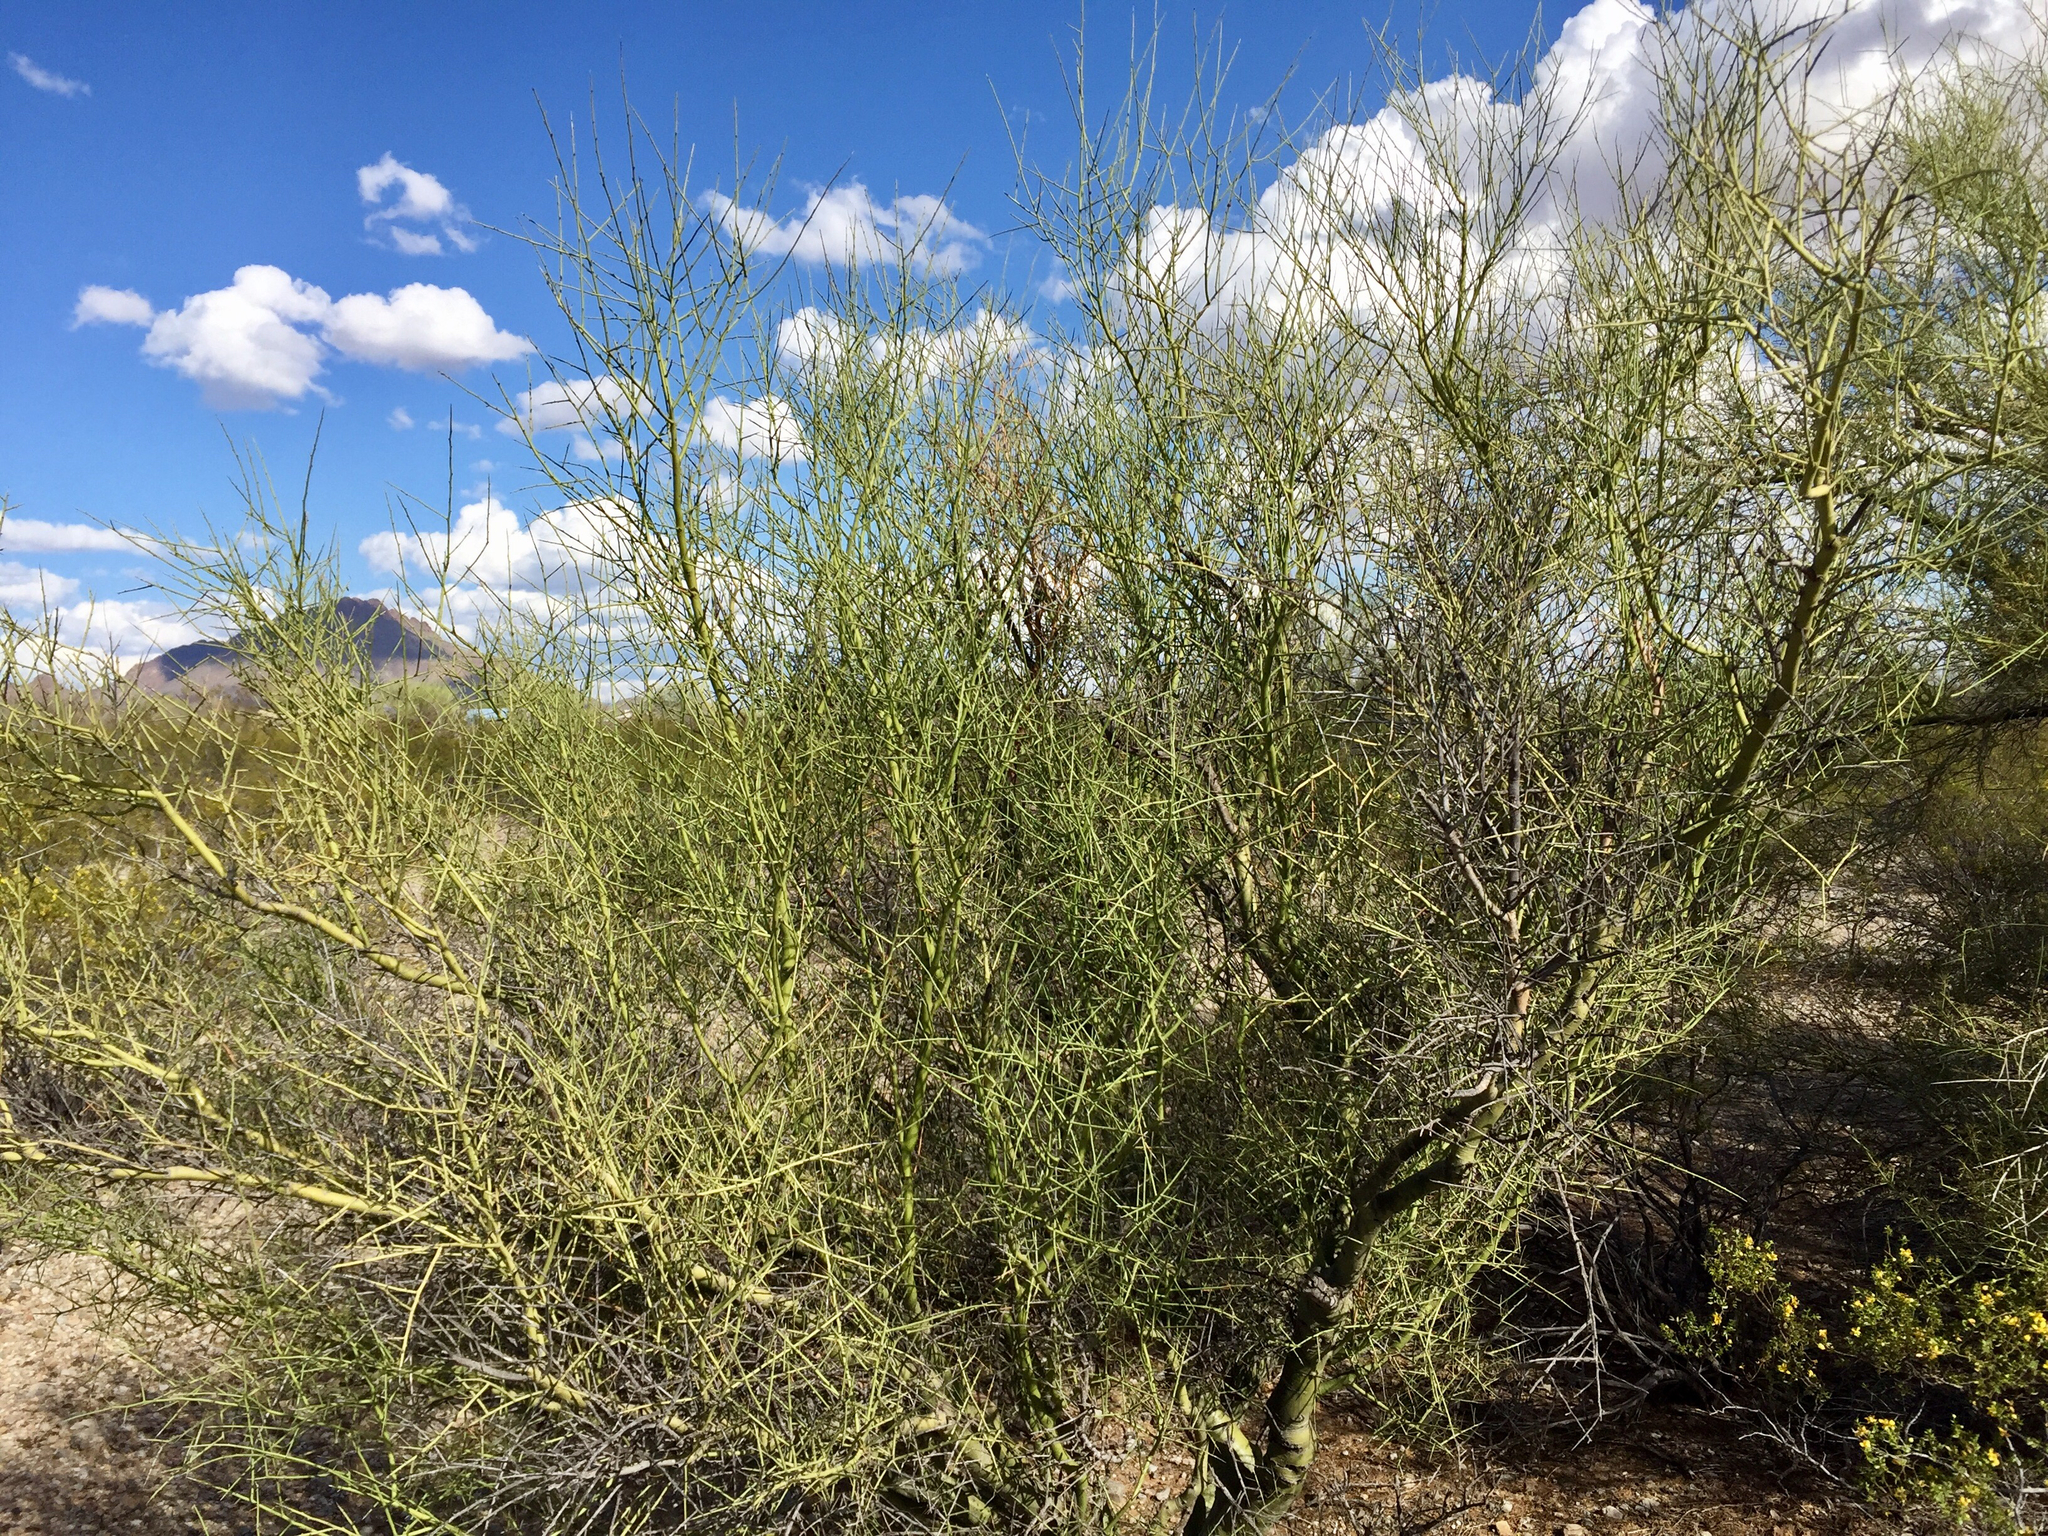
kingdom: Plantae
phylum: Tracheophyta
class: Magnoliopsida
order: Fabales
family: Fabaceae
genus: Parkinsonia
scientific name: Parkinsonia microphylla
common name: Yellow paloverde
